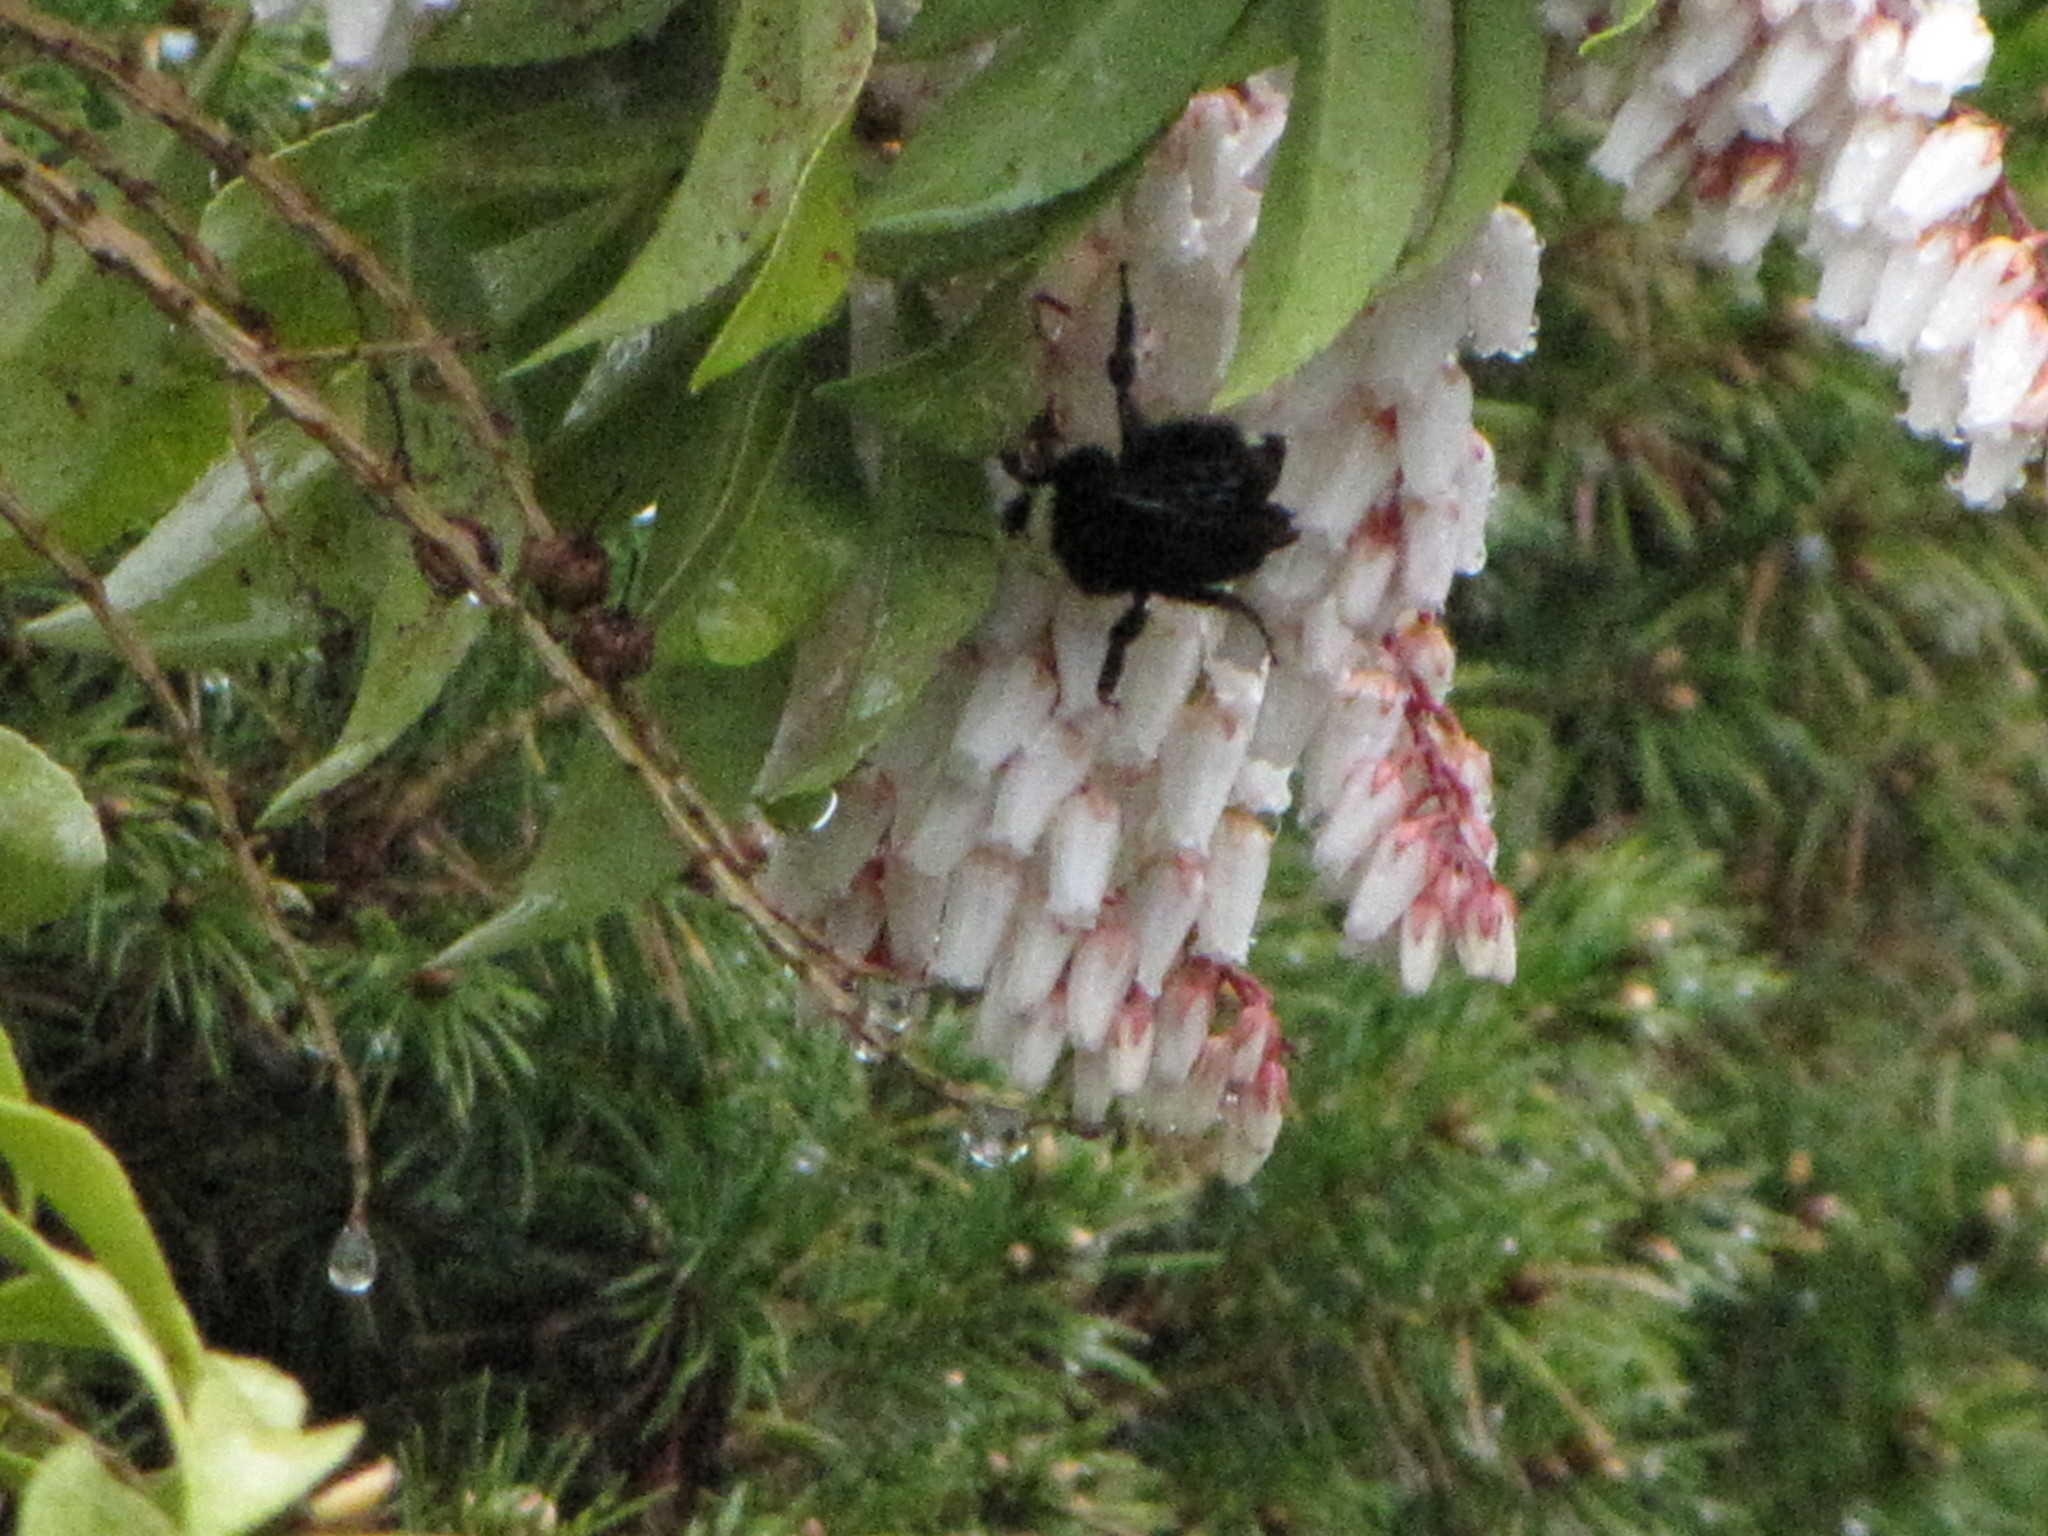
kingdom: Animalia
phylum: Arthropoda
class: Insecta
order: Hymenoptera
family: Apidae
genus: Bombus
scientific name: Bombus vosnesenskii
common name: Vosnesensky bumble bee
